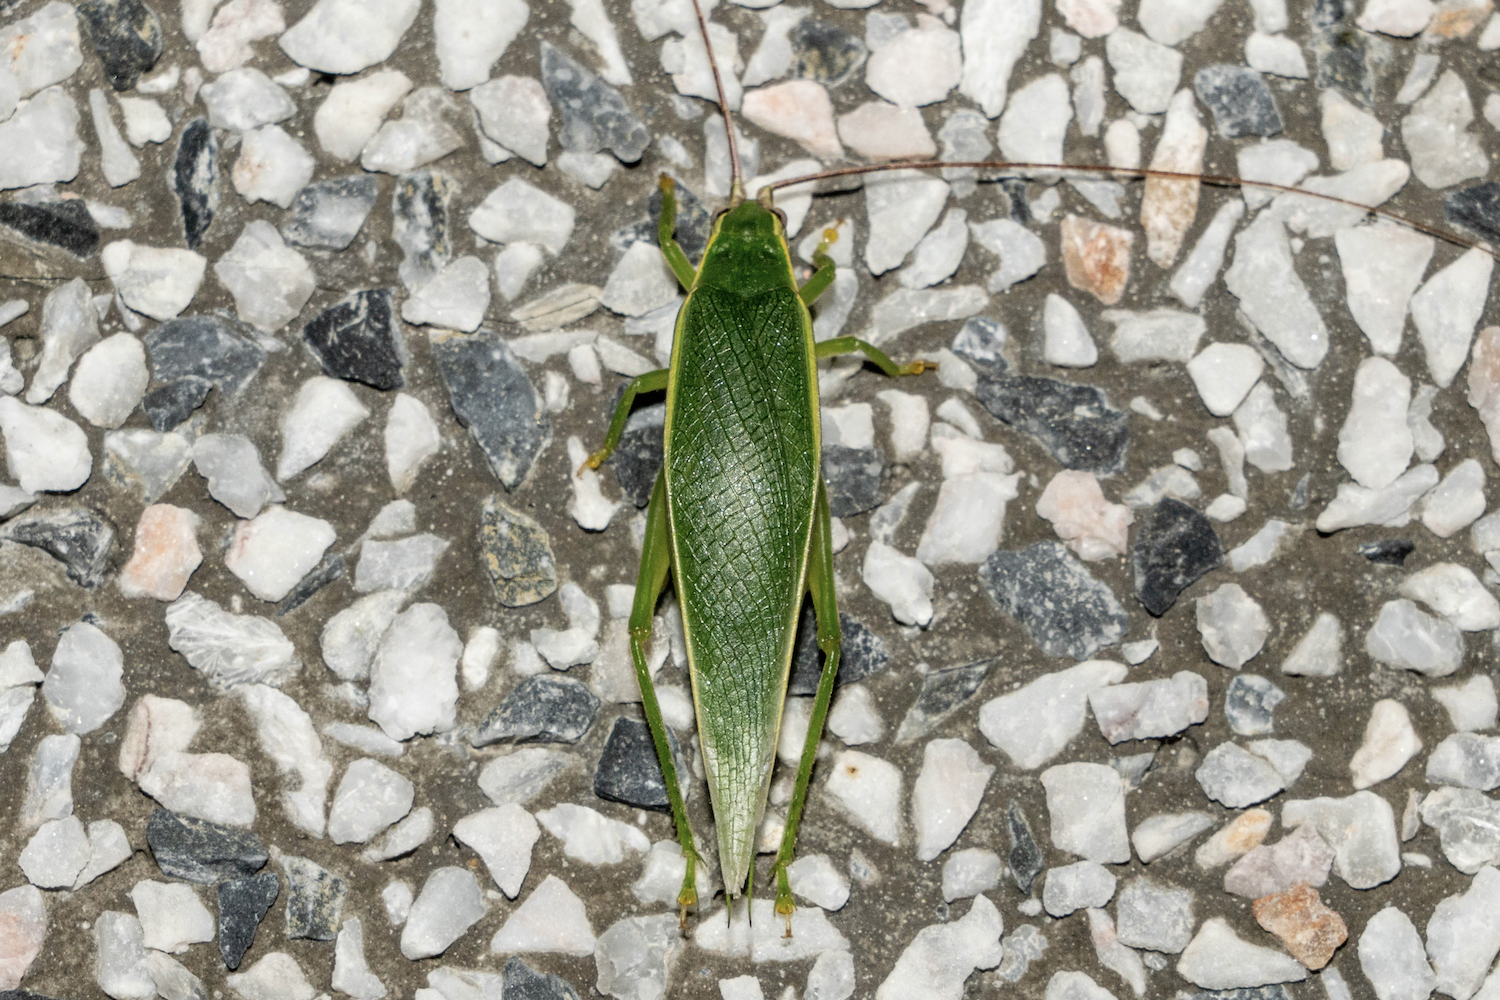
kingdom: Animalia
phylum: Arthropoda
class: Insecta
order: Orthoptera
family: Gryllidae
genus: Truljalia
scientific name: Truljalia hibinonis
